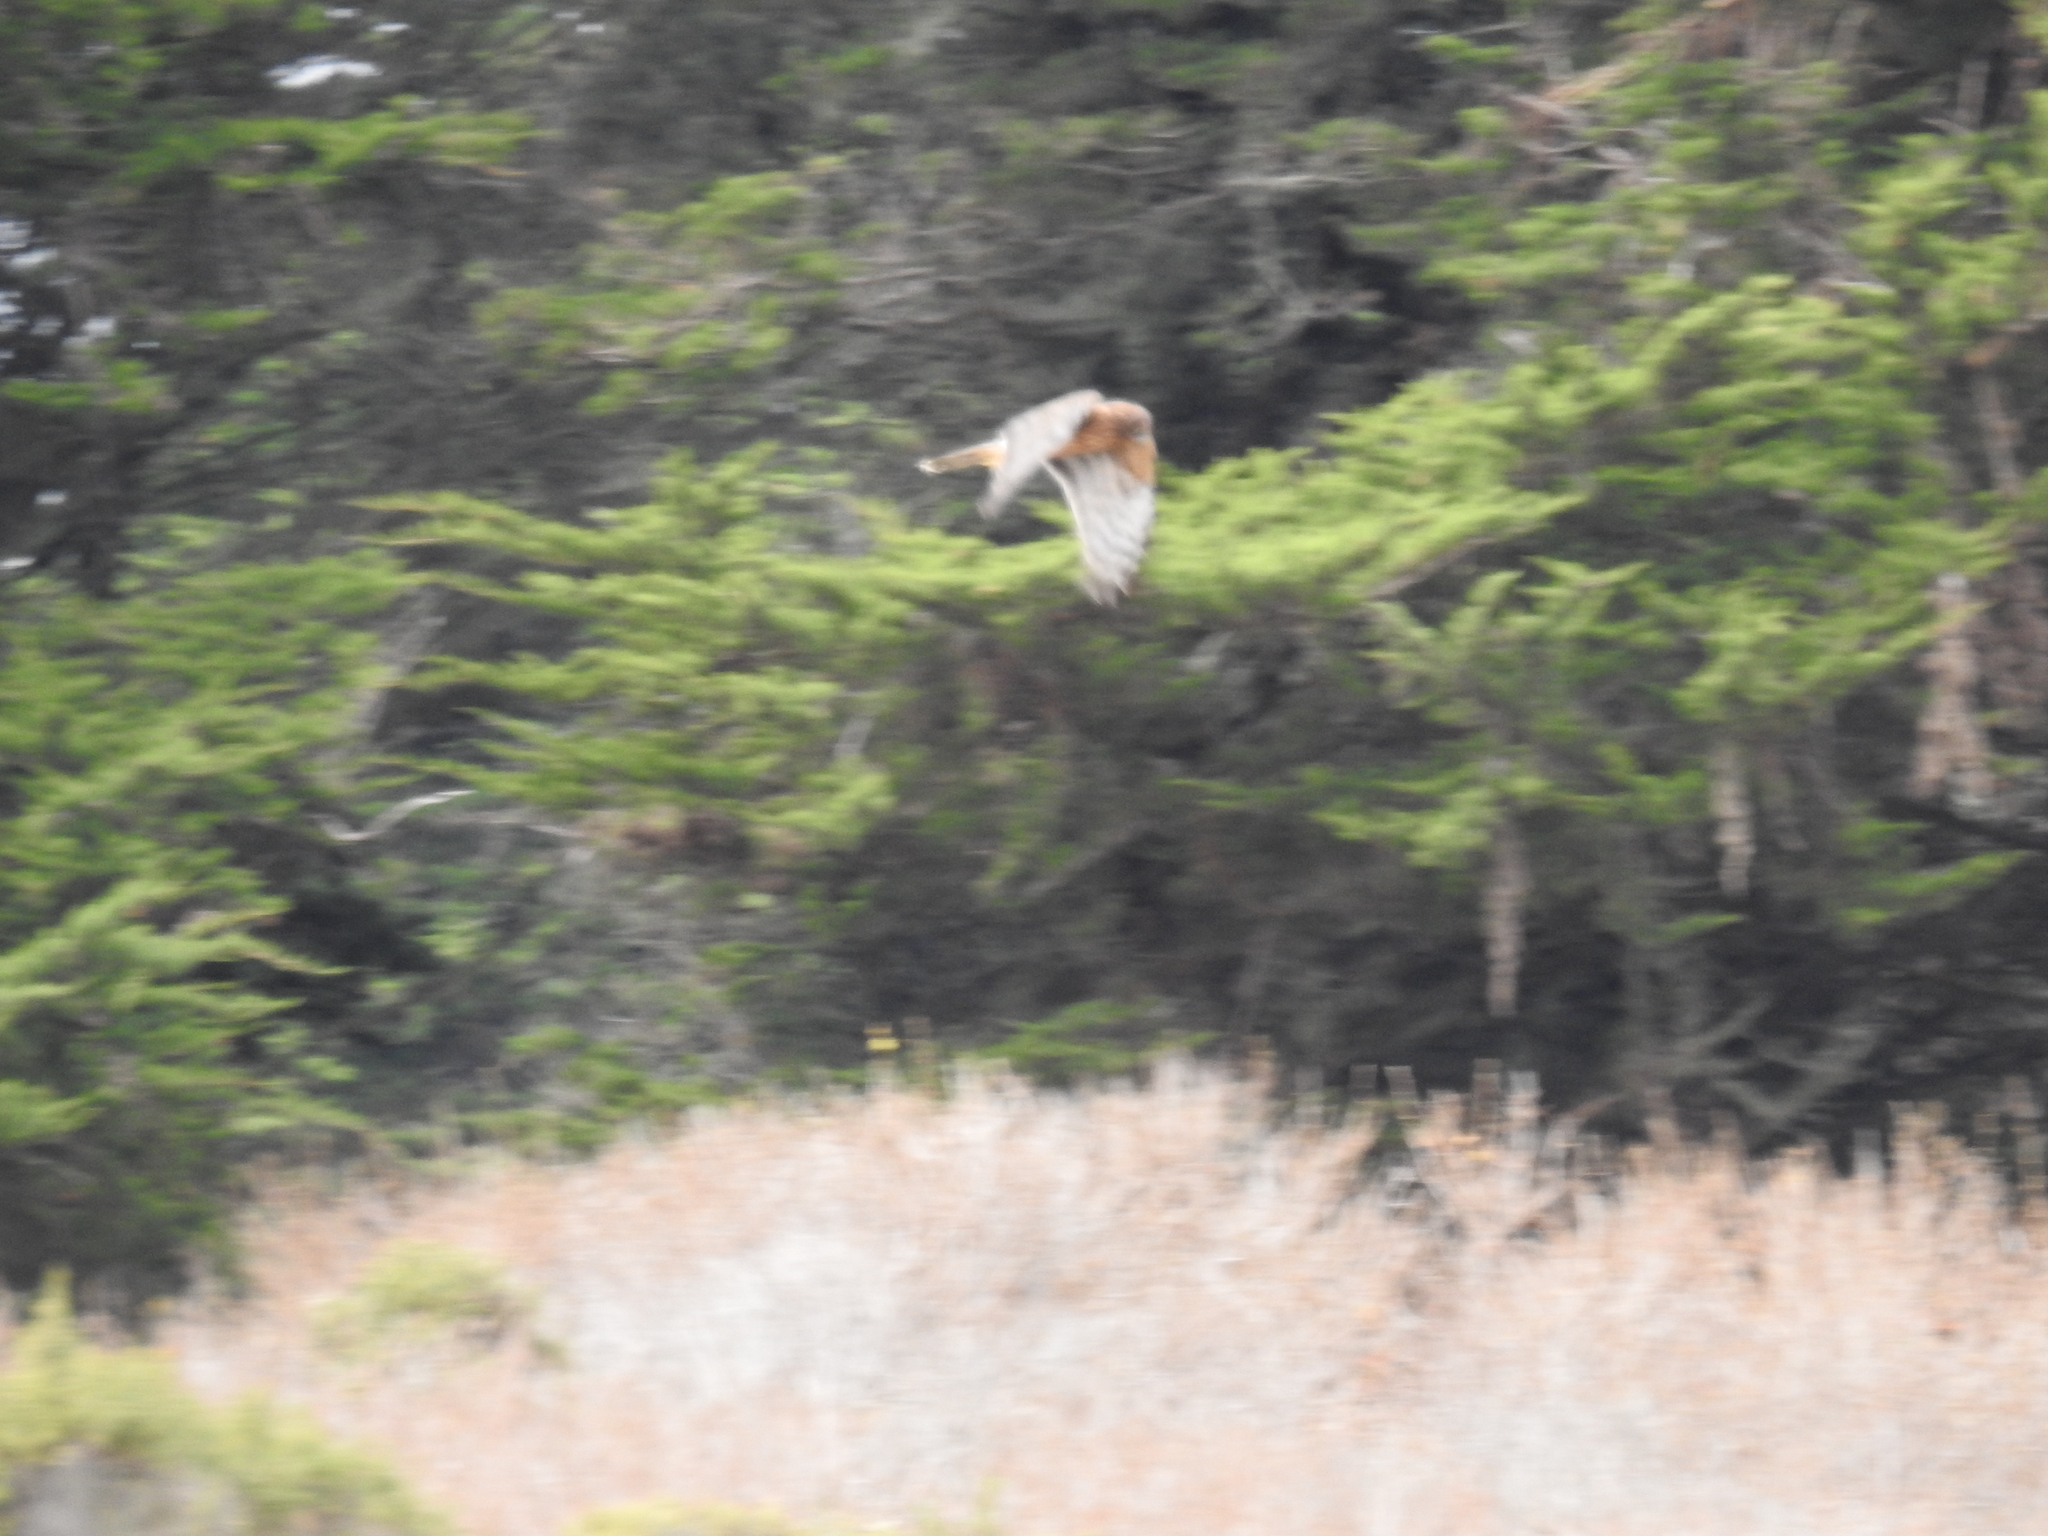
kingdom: Animalia
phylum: Chordata
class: Aves
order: Accipitriformes
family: Accipitridae
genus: Circus
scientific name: Circus cyaneus
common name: Hen harrier
